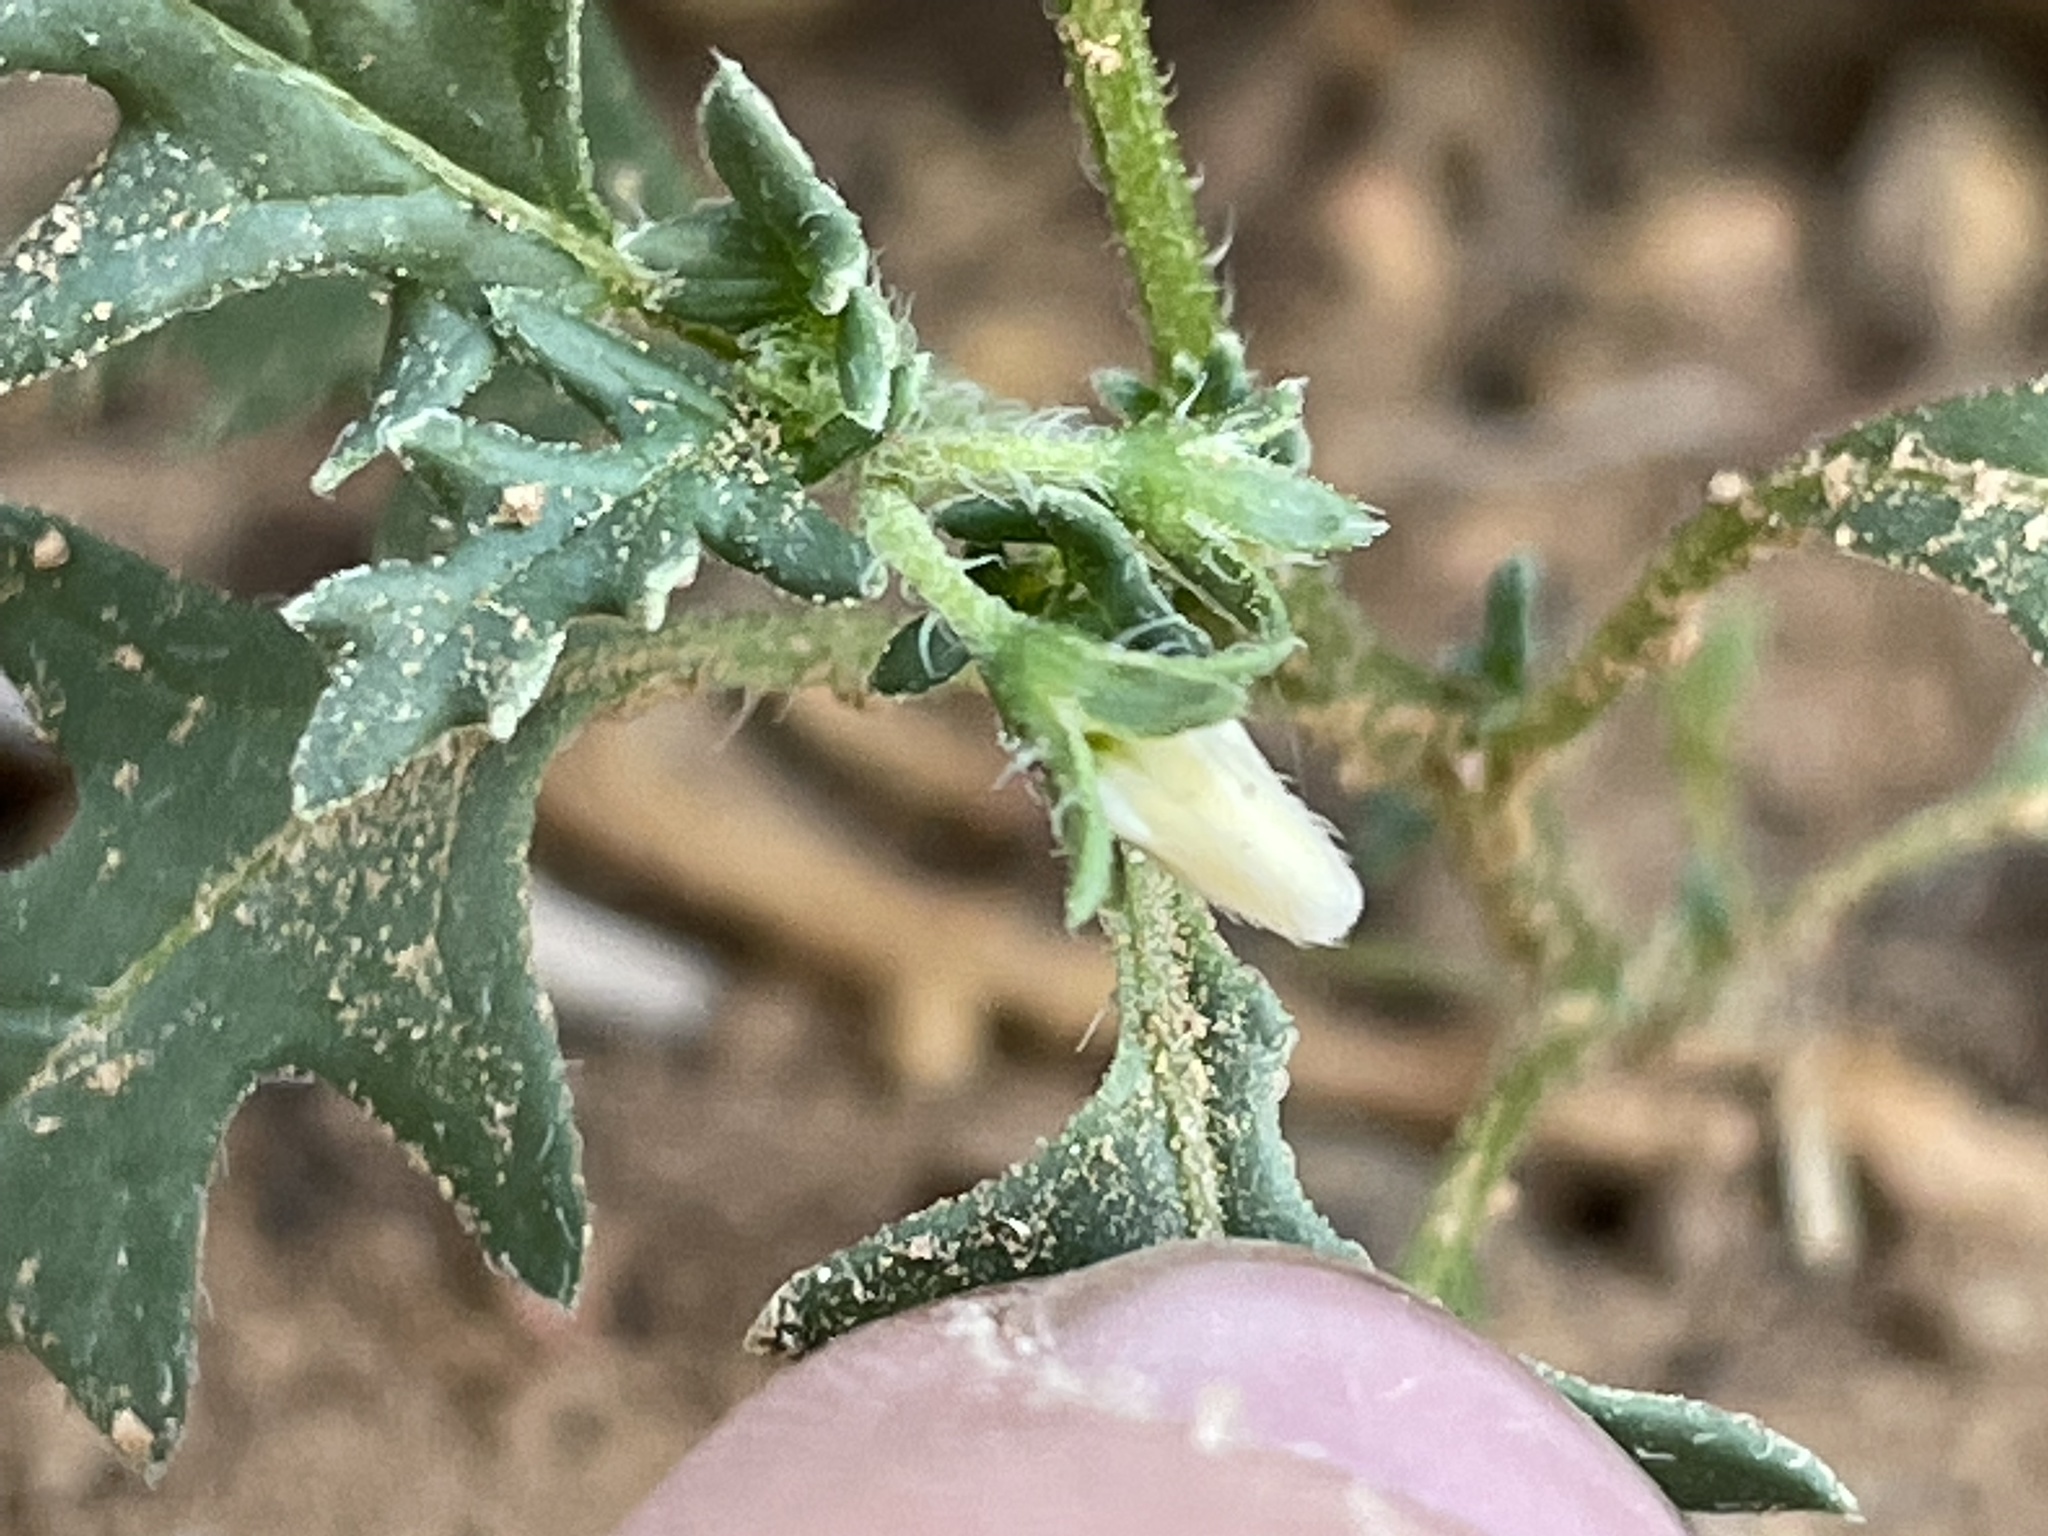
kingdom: Plantae
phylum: Tracheophyta
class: Magnoliopsida
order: Solanales
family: Solanaceae
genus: Solanum
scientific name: Solanum triflorum
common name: Small nightshade
